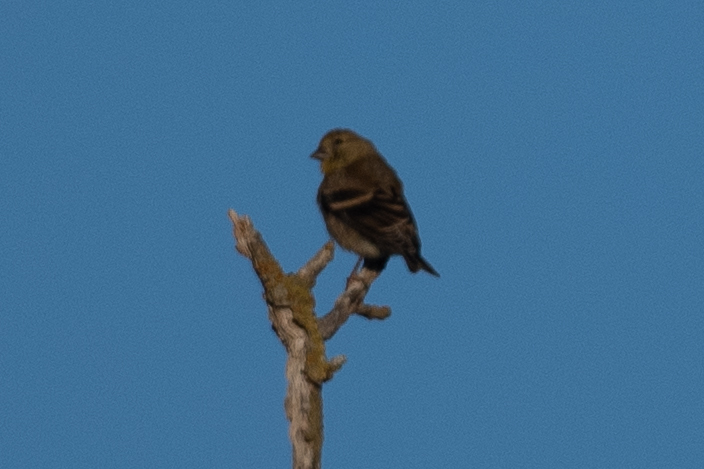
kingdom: Animalia
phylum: Chordata
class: Aves
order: Passeriformes
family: Fringillidae
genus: Spinus
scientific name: Spinus tristis
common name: American goldfinch
